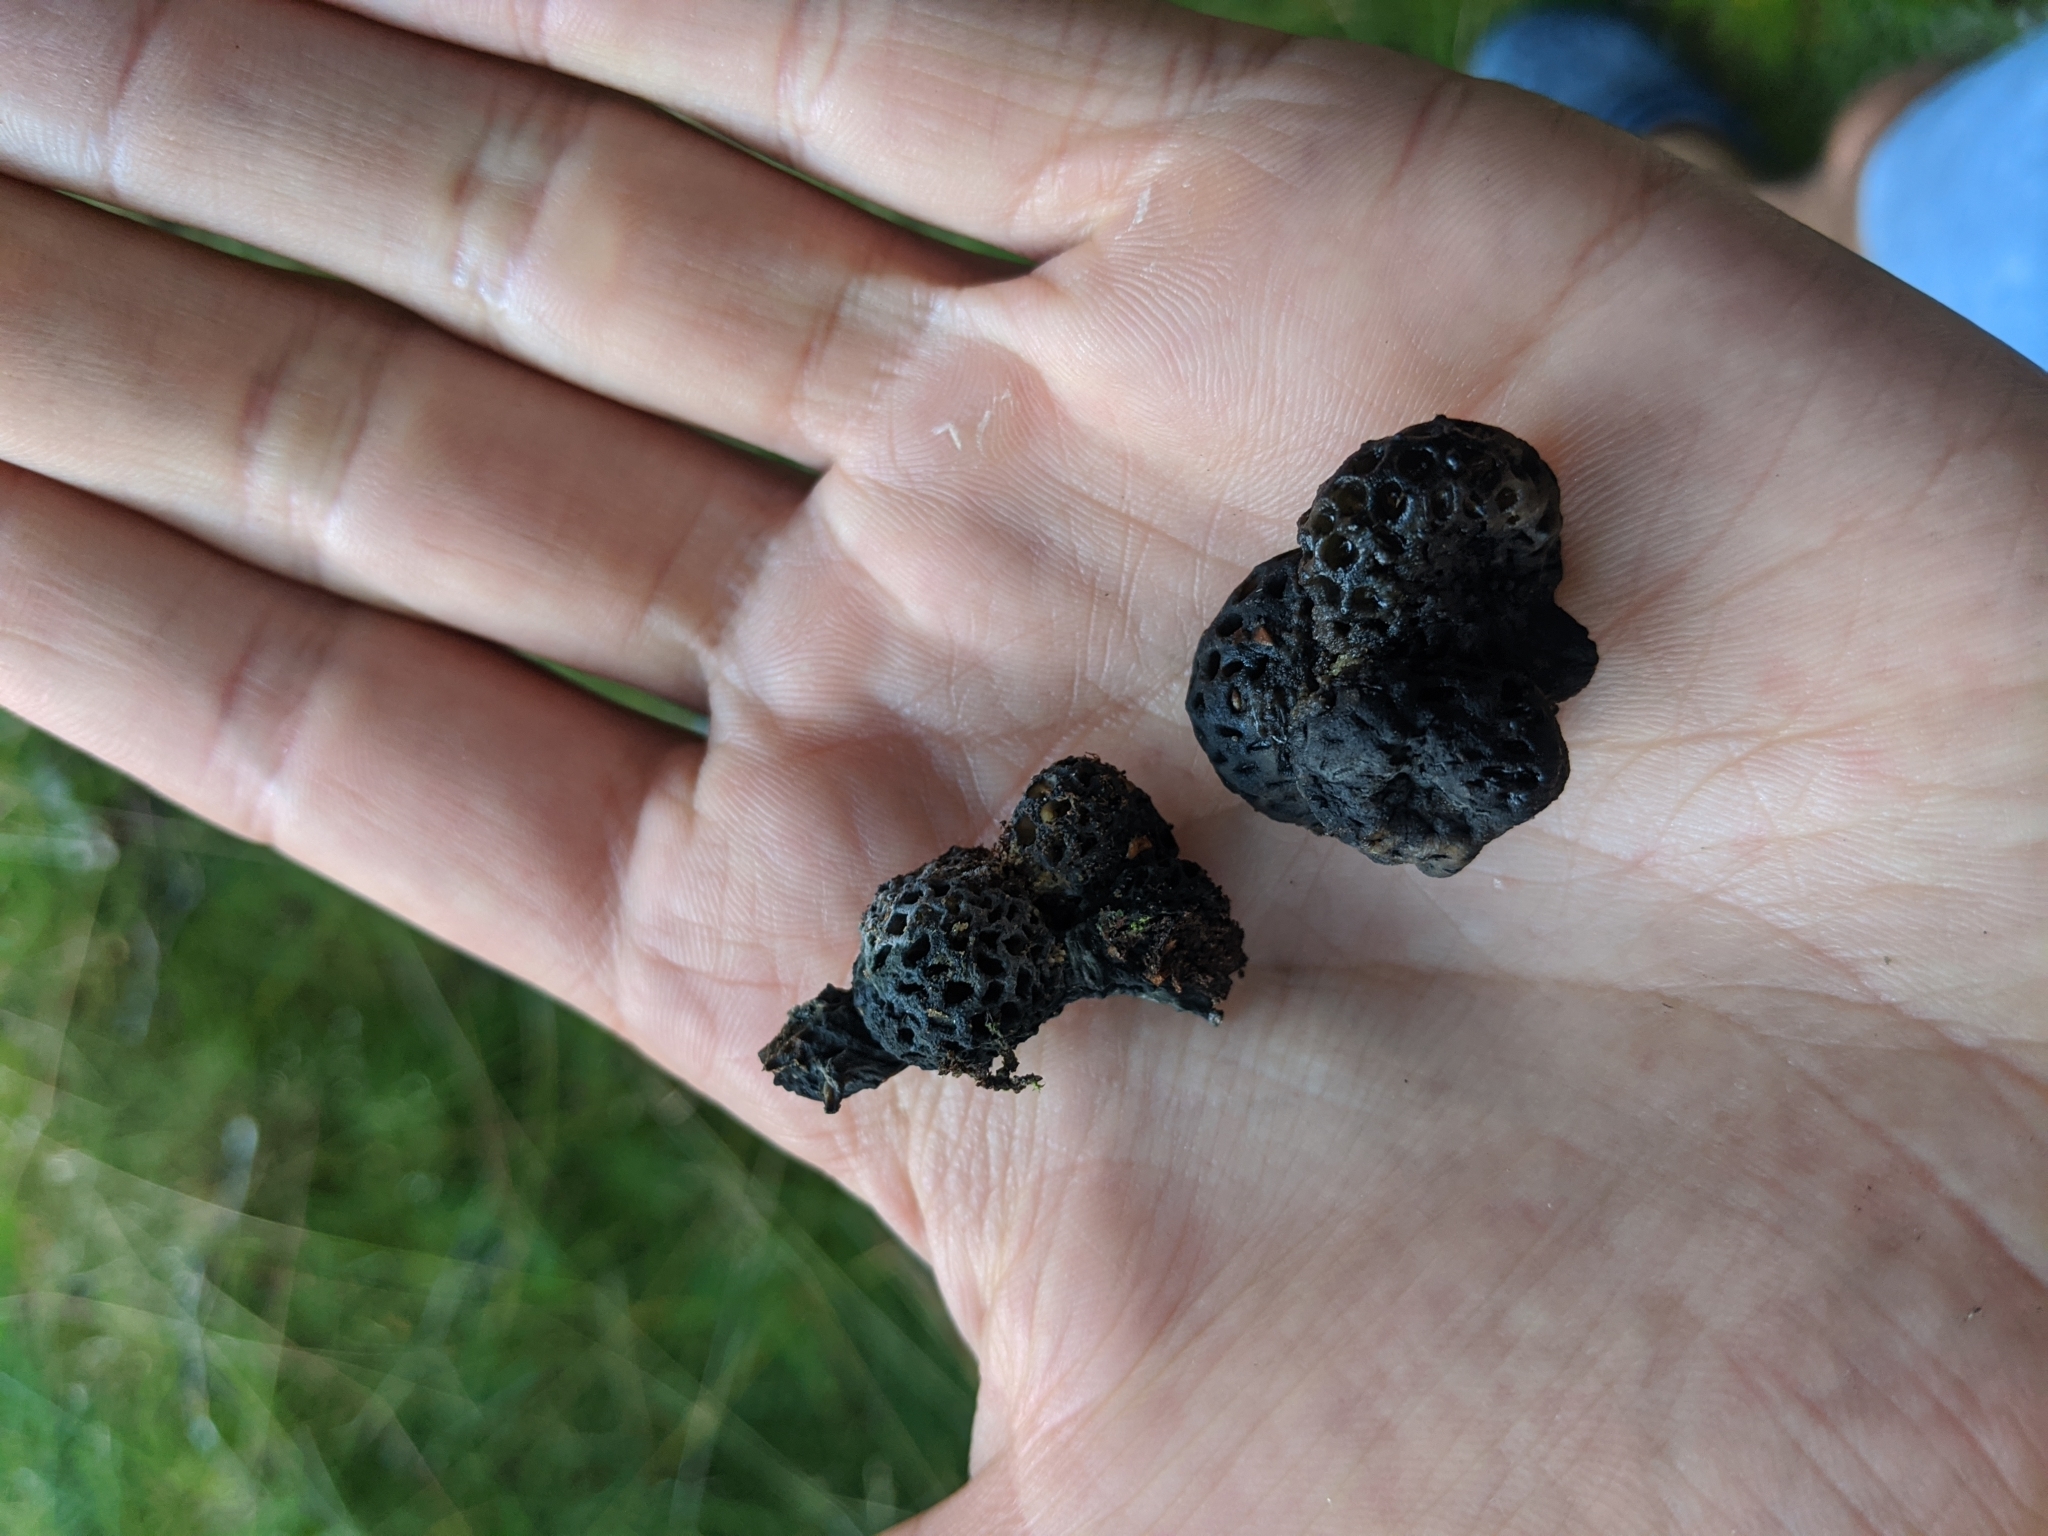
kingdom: Fungi
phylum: Ascomycota
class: Leotiomycetes
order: Cyttariales
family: Cyttariaceae
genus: Cyttaria
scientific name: Cyttaria
